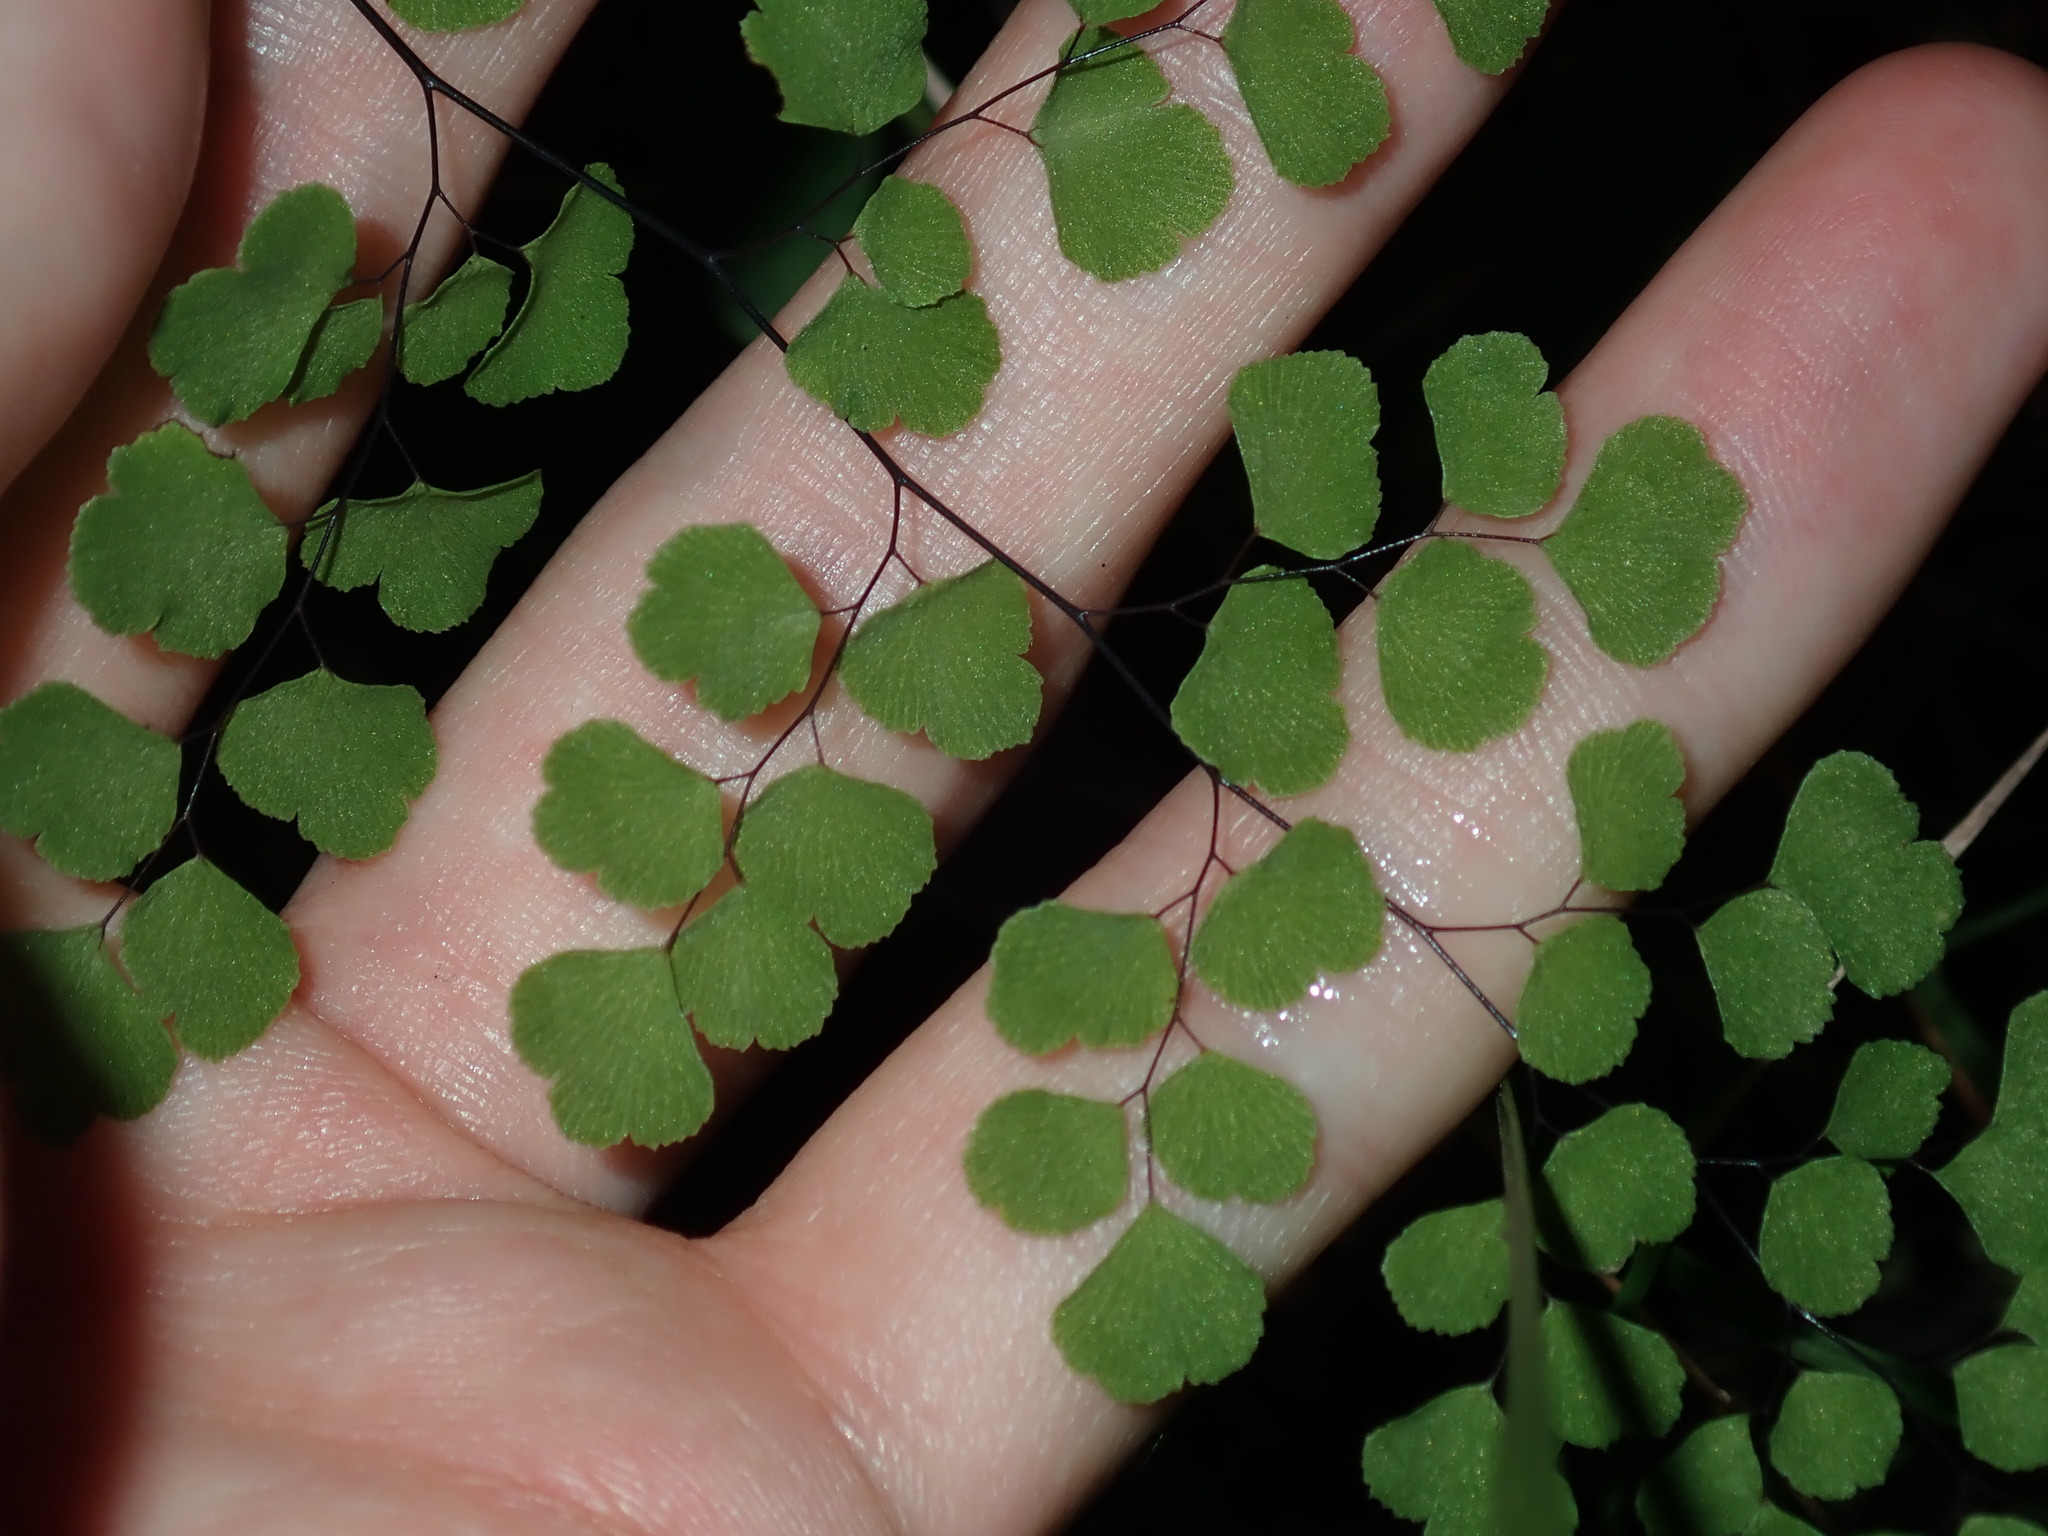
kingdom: Plantae
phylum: Tracheophyta
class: Polypodiopsida
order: Polypodiales
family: Pteridaceae
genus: Adiantum
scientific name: Adiantum aethiopicum
